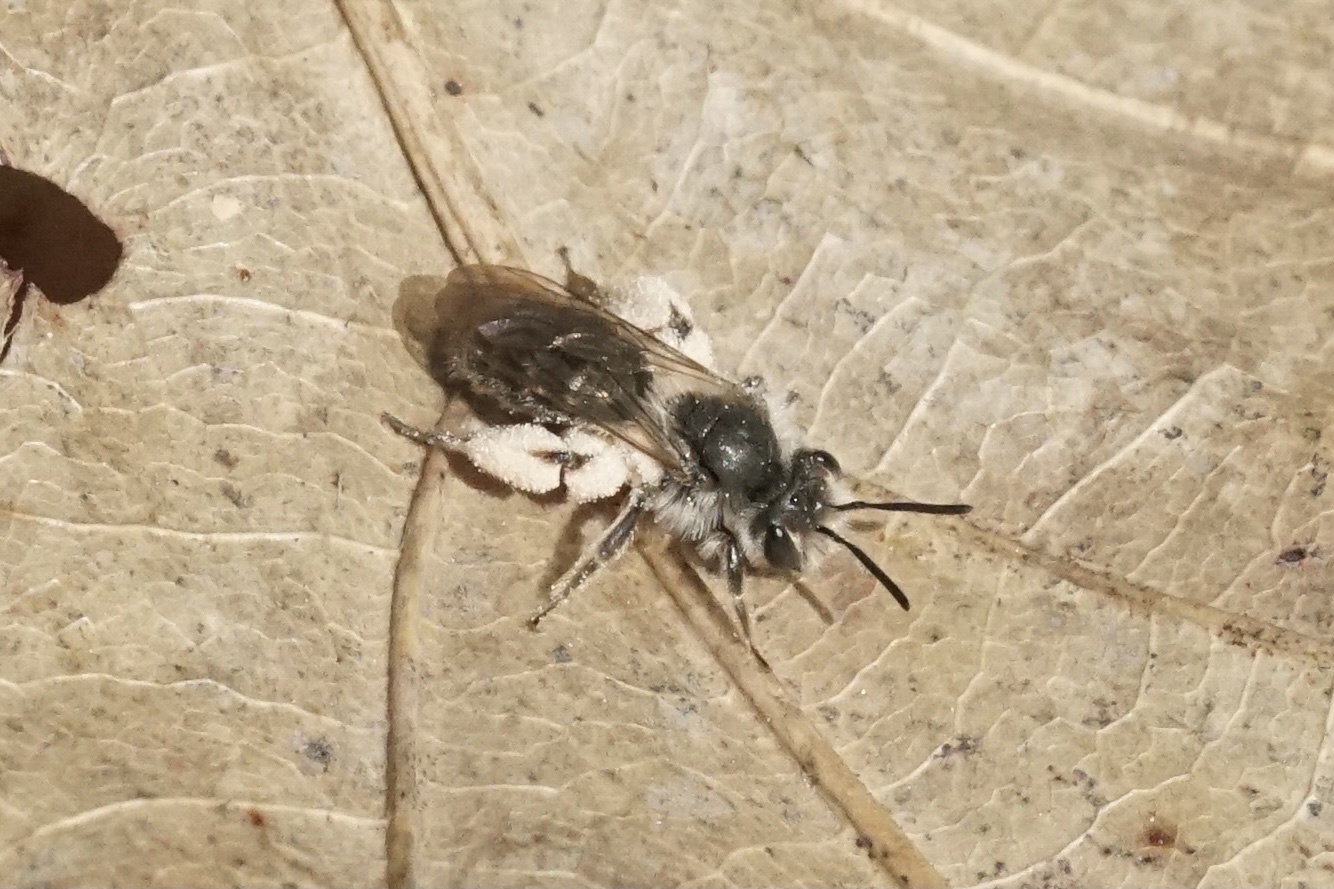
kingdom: Animalia
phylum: Arthropoda
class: Insecta
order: Hymenoptera
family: Andrenidae
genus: Andrena
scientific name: Andrena erigeniae
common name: Spring beauty miner
